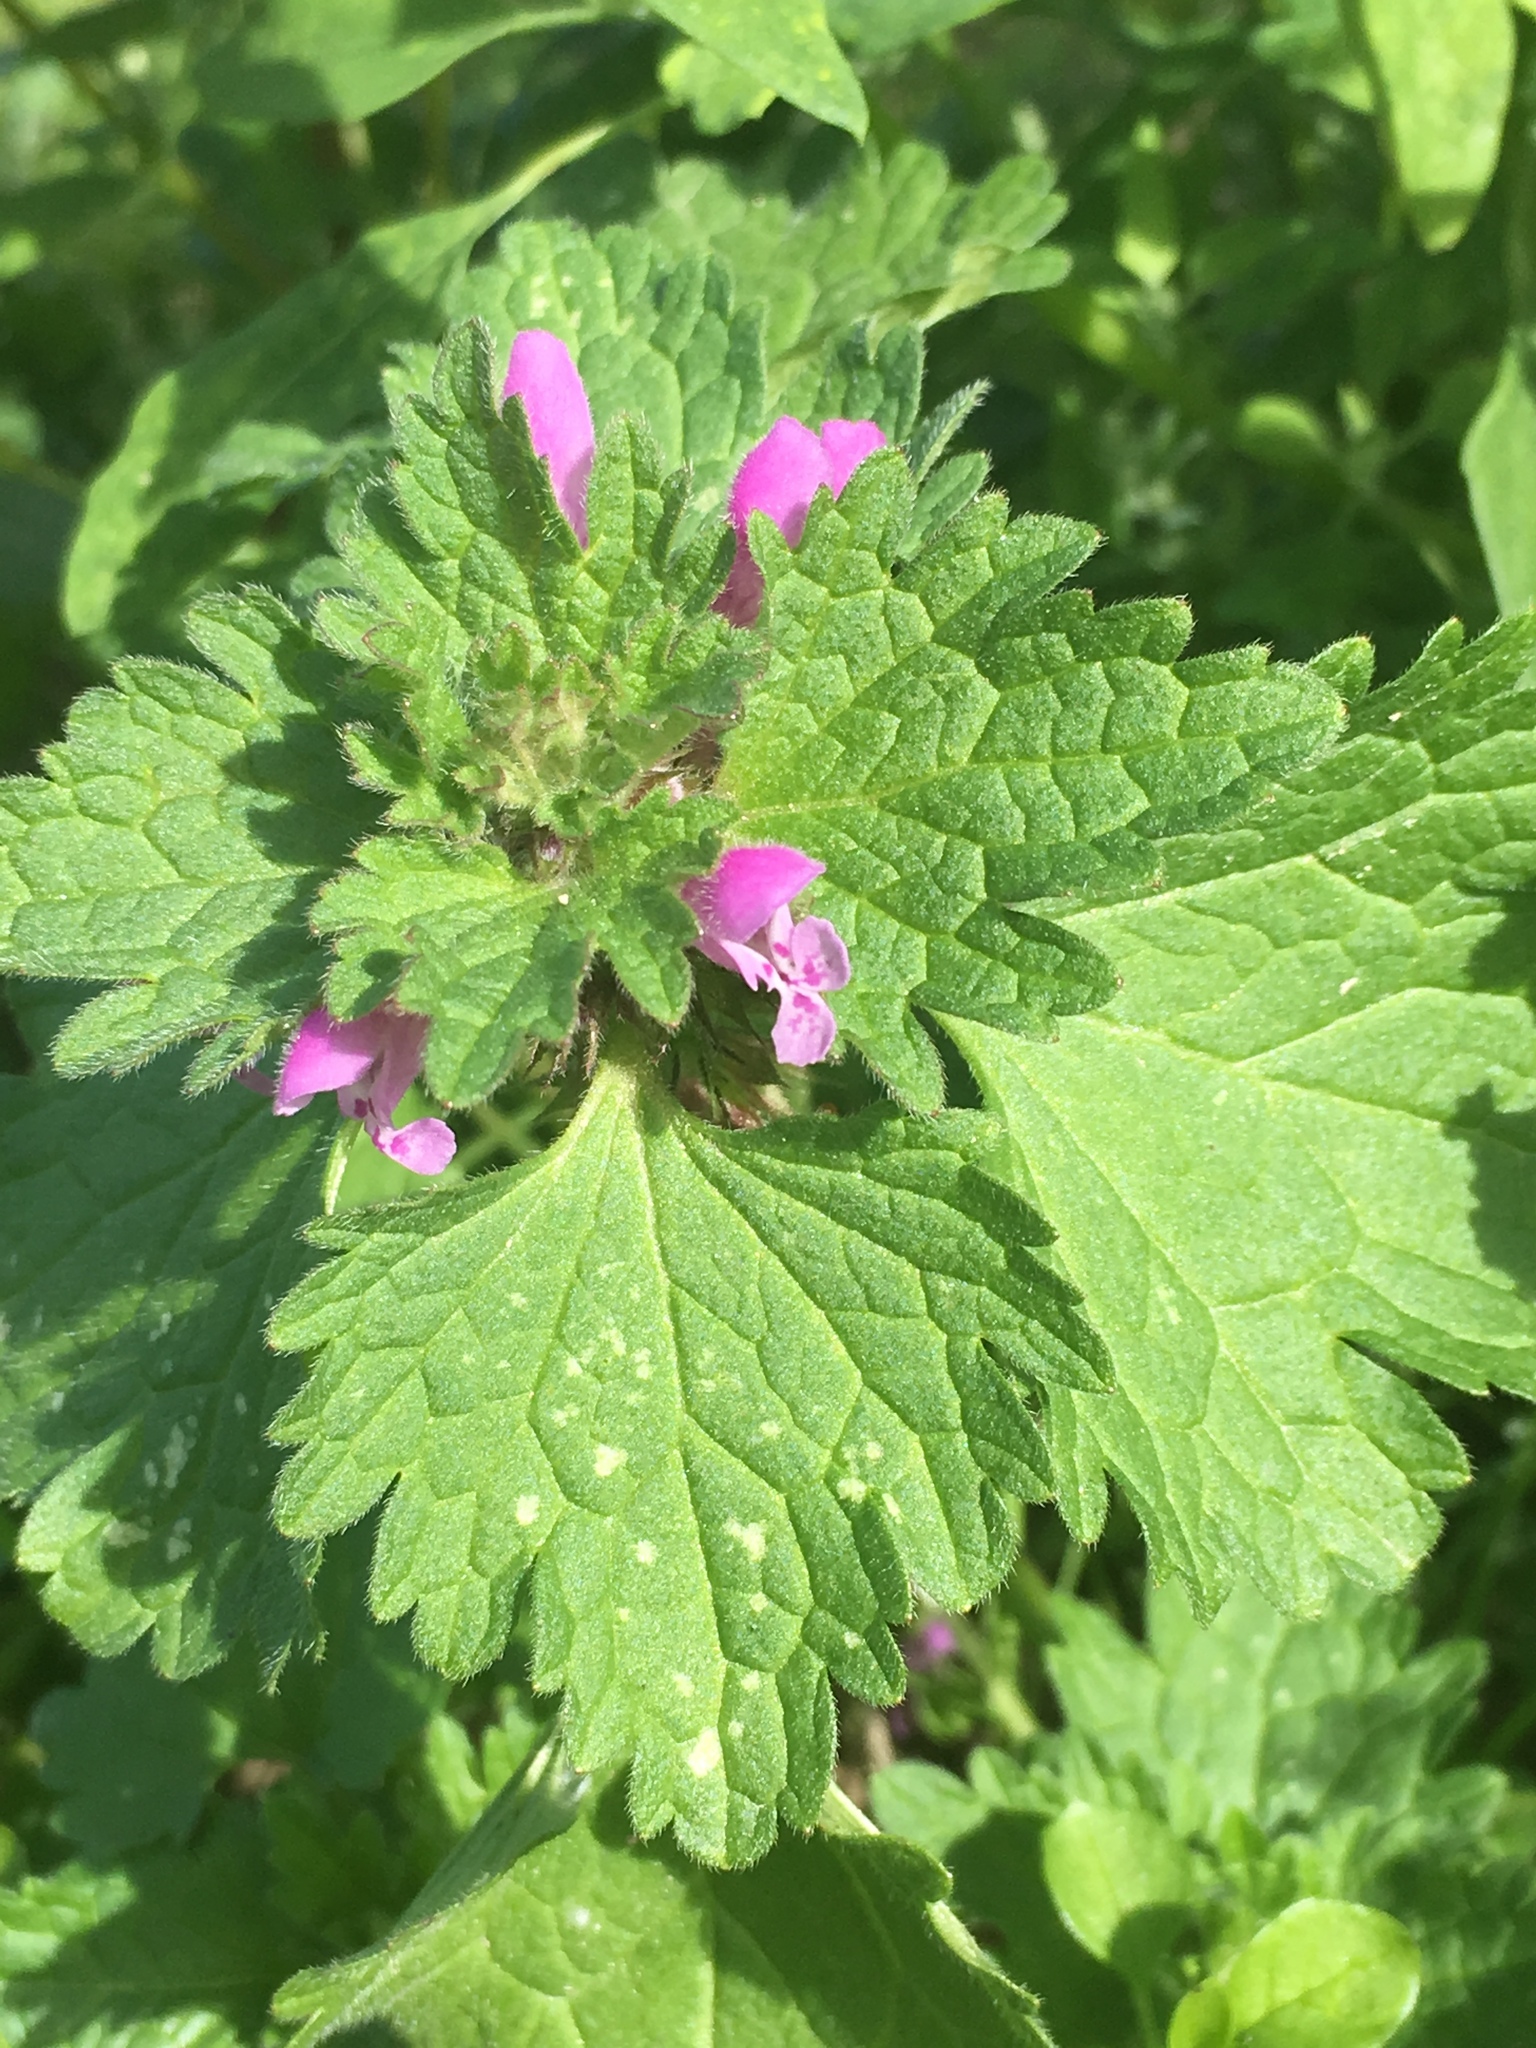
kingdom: Plantae
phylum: Tracheophyta
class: Magnoliopsida
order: Lamiales
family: Lamiaceae
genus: Lamium
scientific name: Lamium hybridum
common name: Cut-leaved dead-nettle
